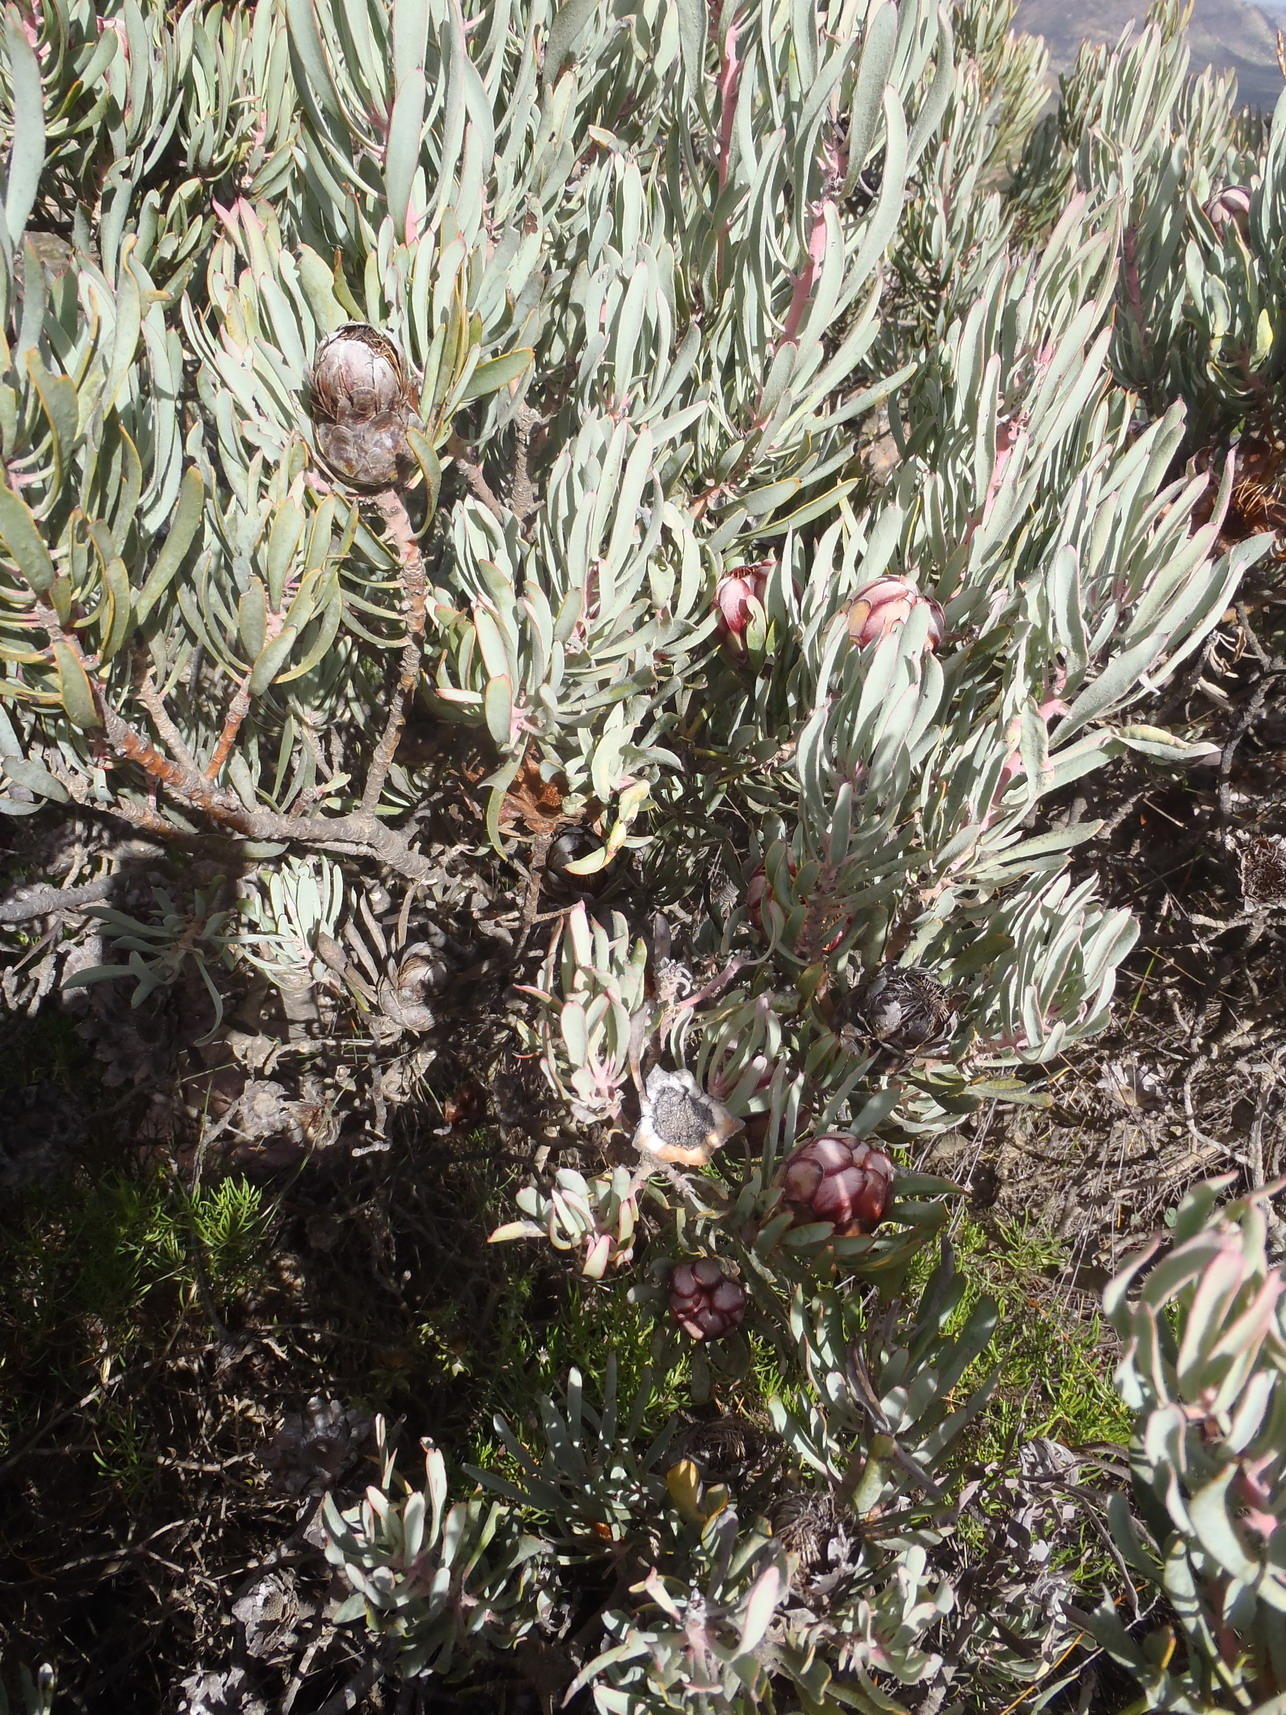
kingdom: Plantae
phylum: Tracheophyta
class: Magnoliopsida
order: Proteales
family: Proteaceae
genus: Protea
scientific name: Protea canaliculata
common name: Groove-leaf sugarbush
